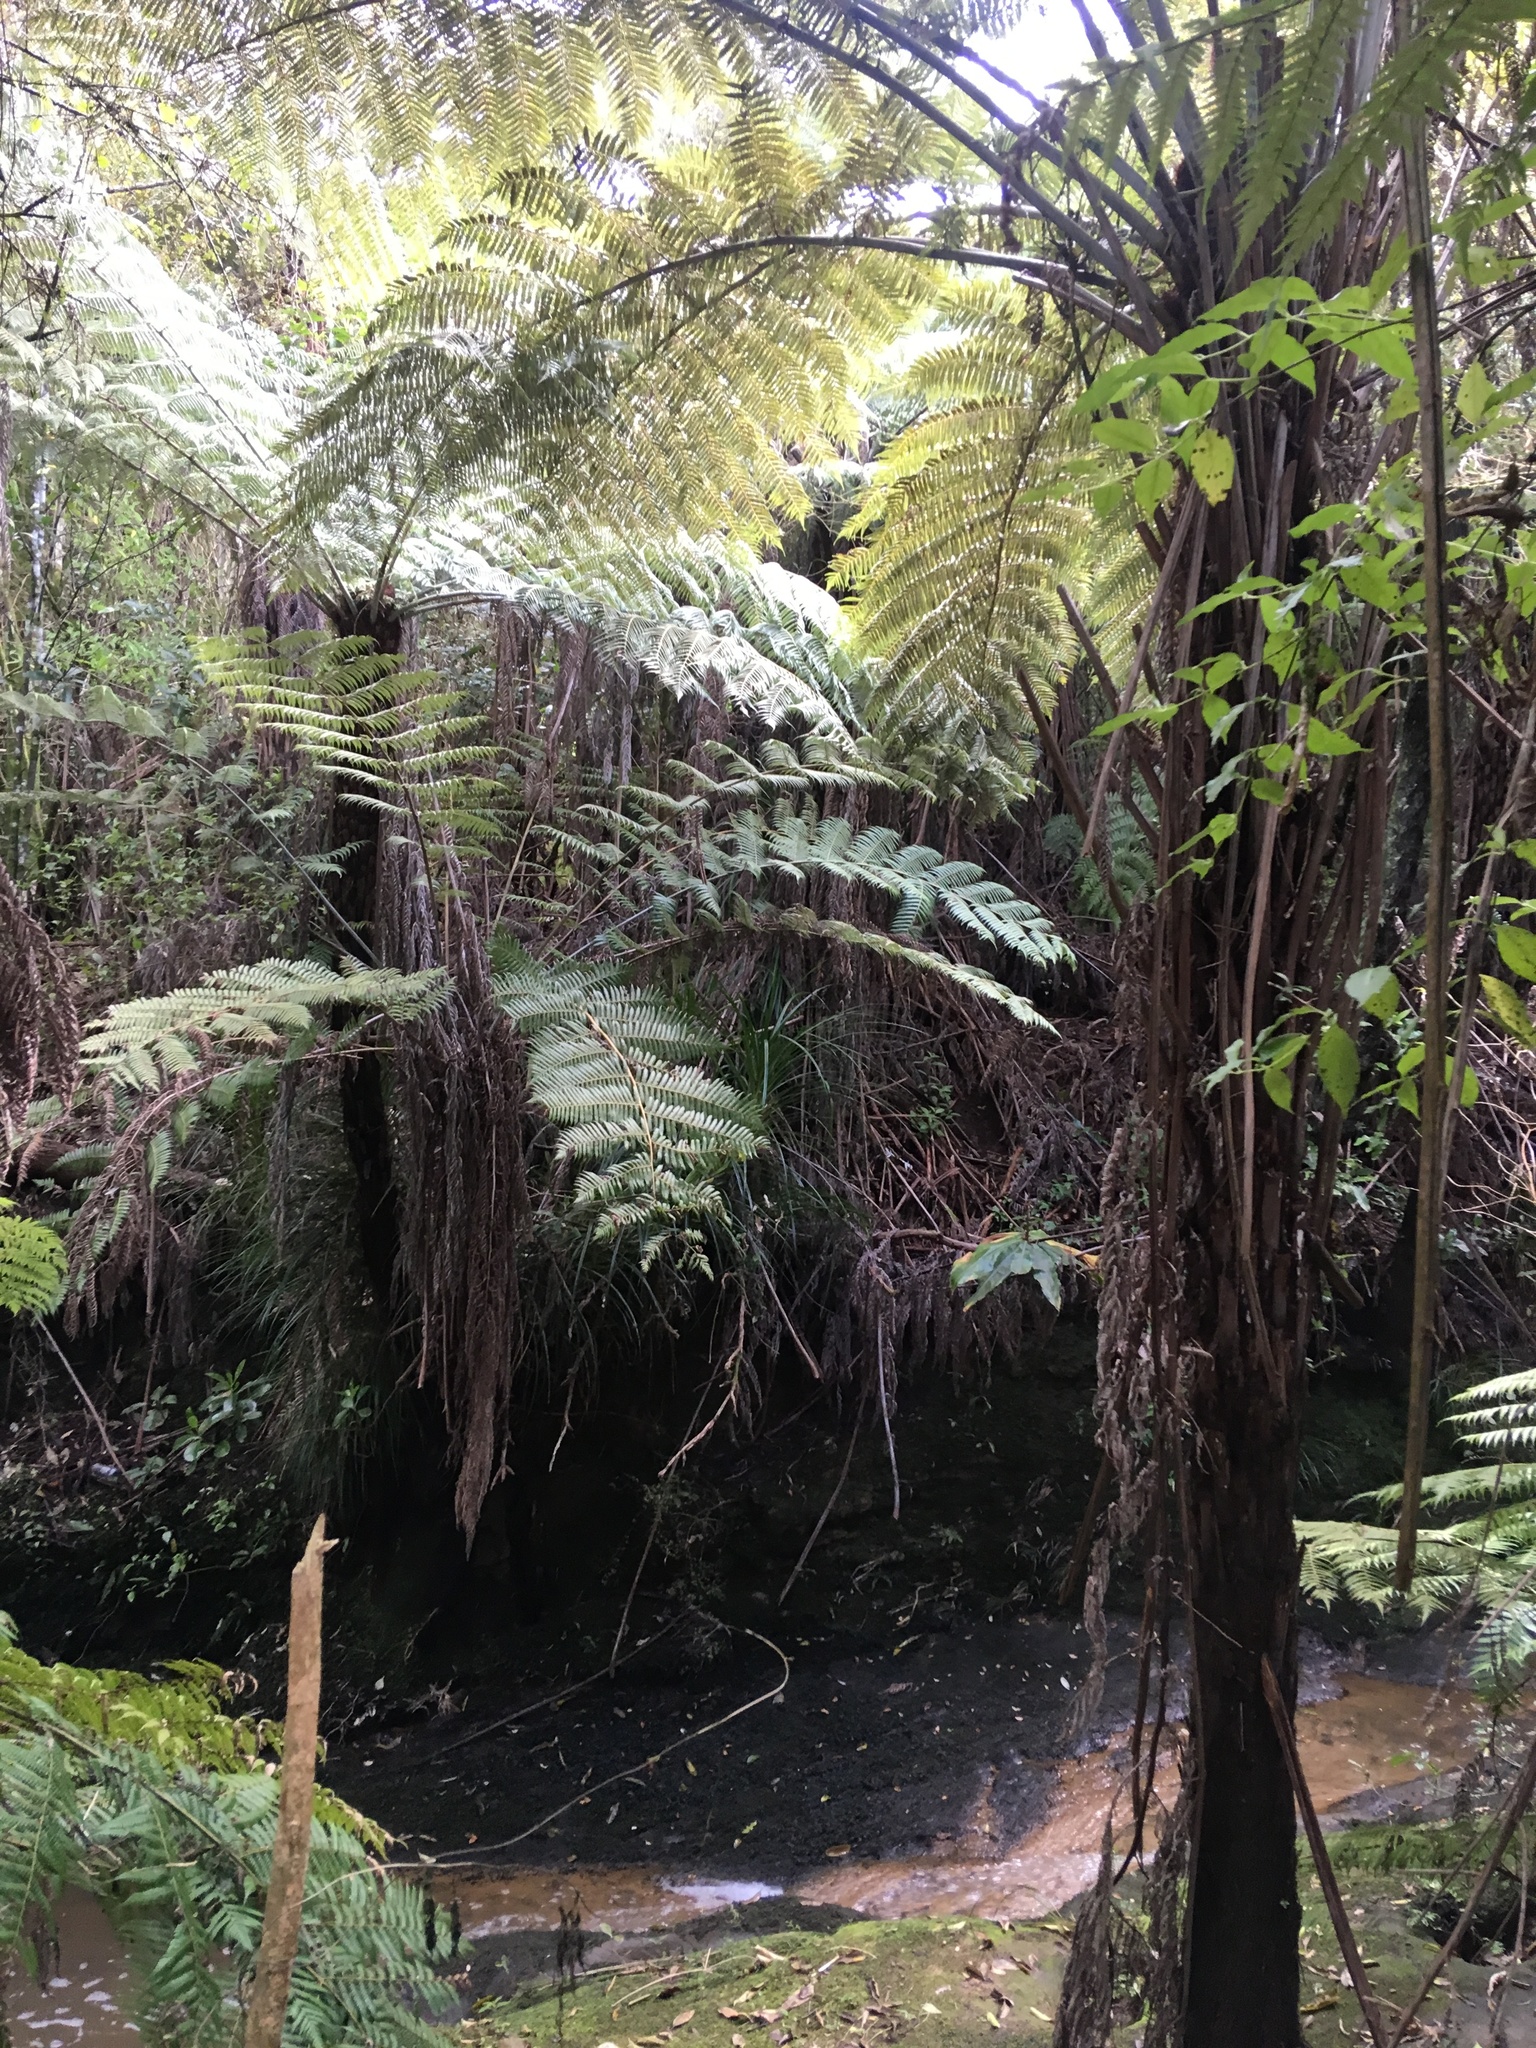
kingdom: Plantae
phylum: Tracheophyta
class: Liliopsida
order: Zingiberales
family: Zingiberaceae
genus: Hedychium
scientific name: Hedychium gardnerianum
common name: Himalayan ginger
